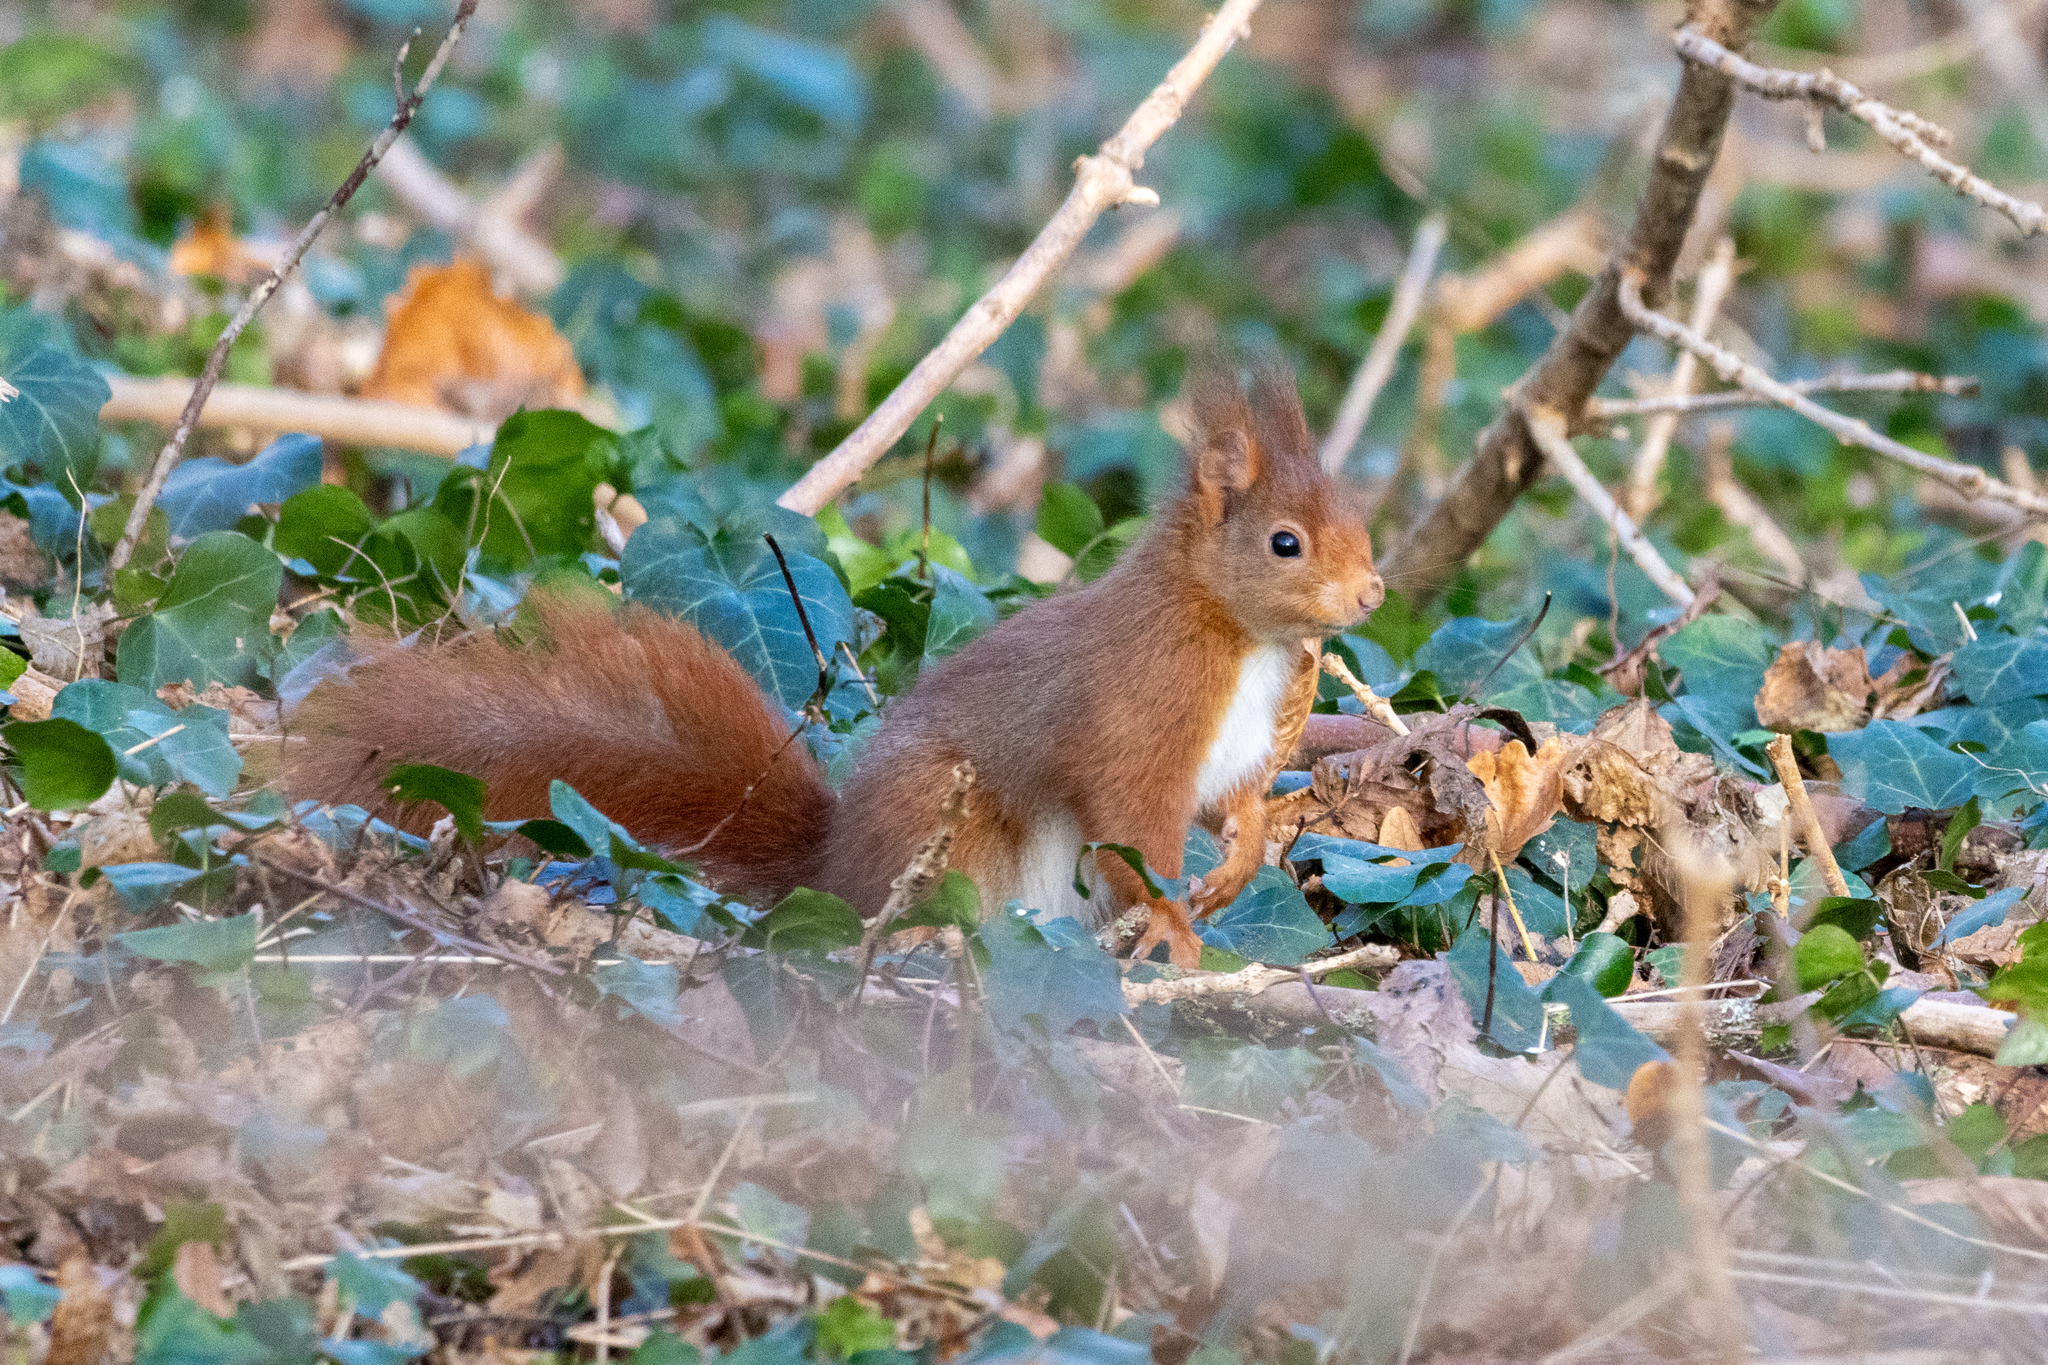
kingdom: Animalia
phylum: Chordata
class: Mammalia
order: Rodentia
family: Sciuridae
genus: Sciurus
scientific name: Sciurus vulgaris
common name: Eurasian red squirrel
